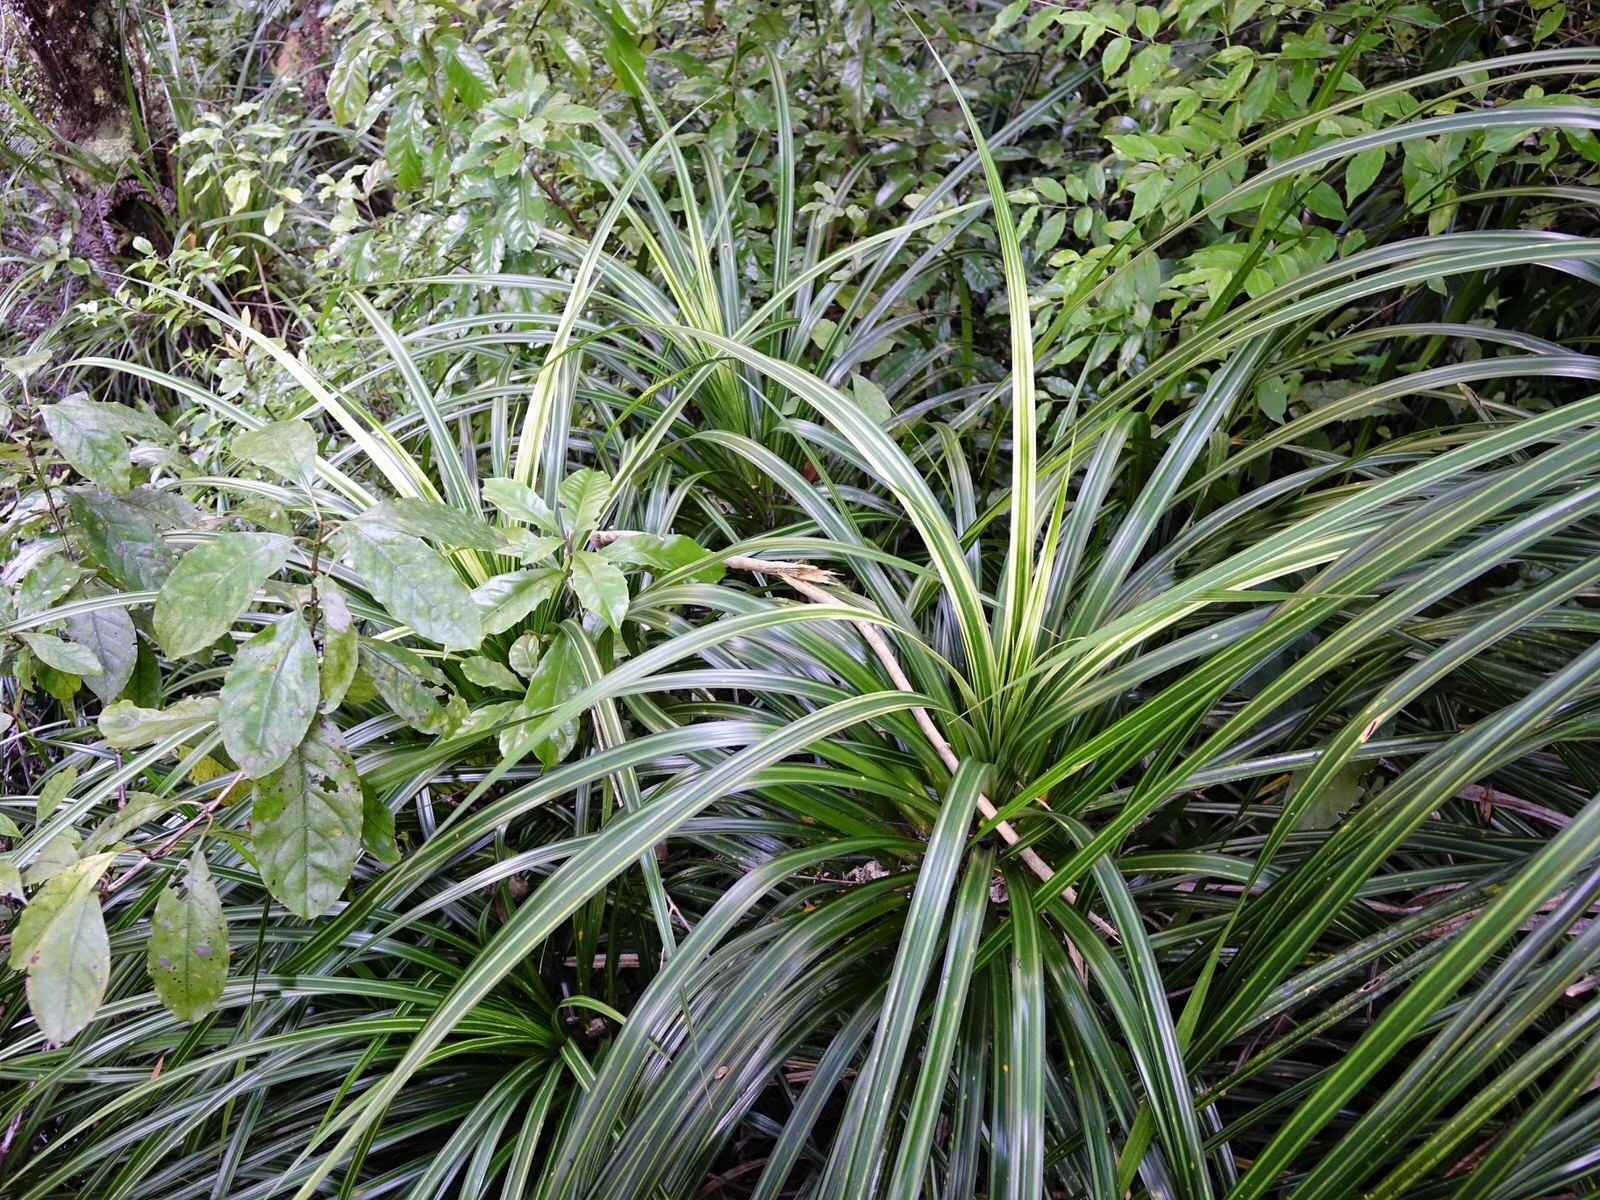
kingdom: Plantae
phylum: Tracheophyta
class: Liliopsida
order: Pandanales
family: Pandanaceae
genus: Freycinetia
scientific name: Freycinetia banksii
